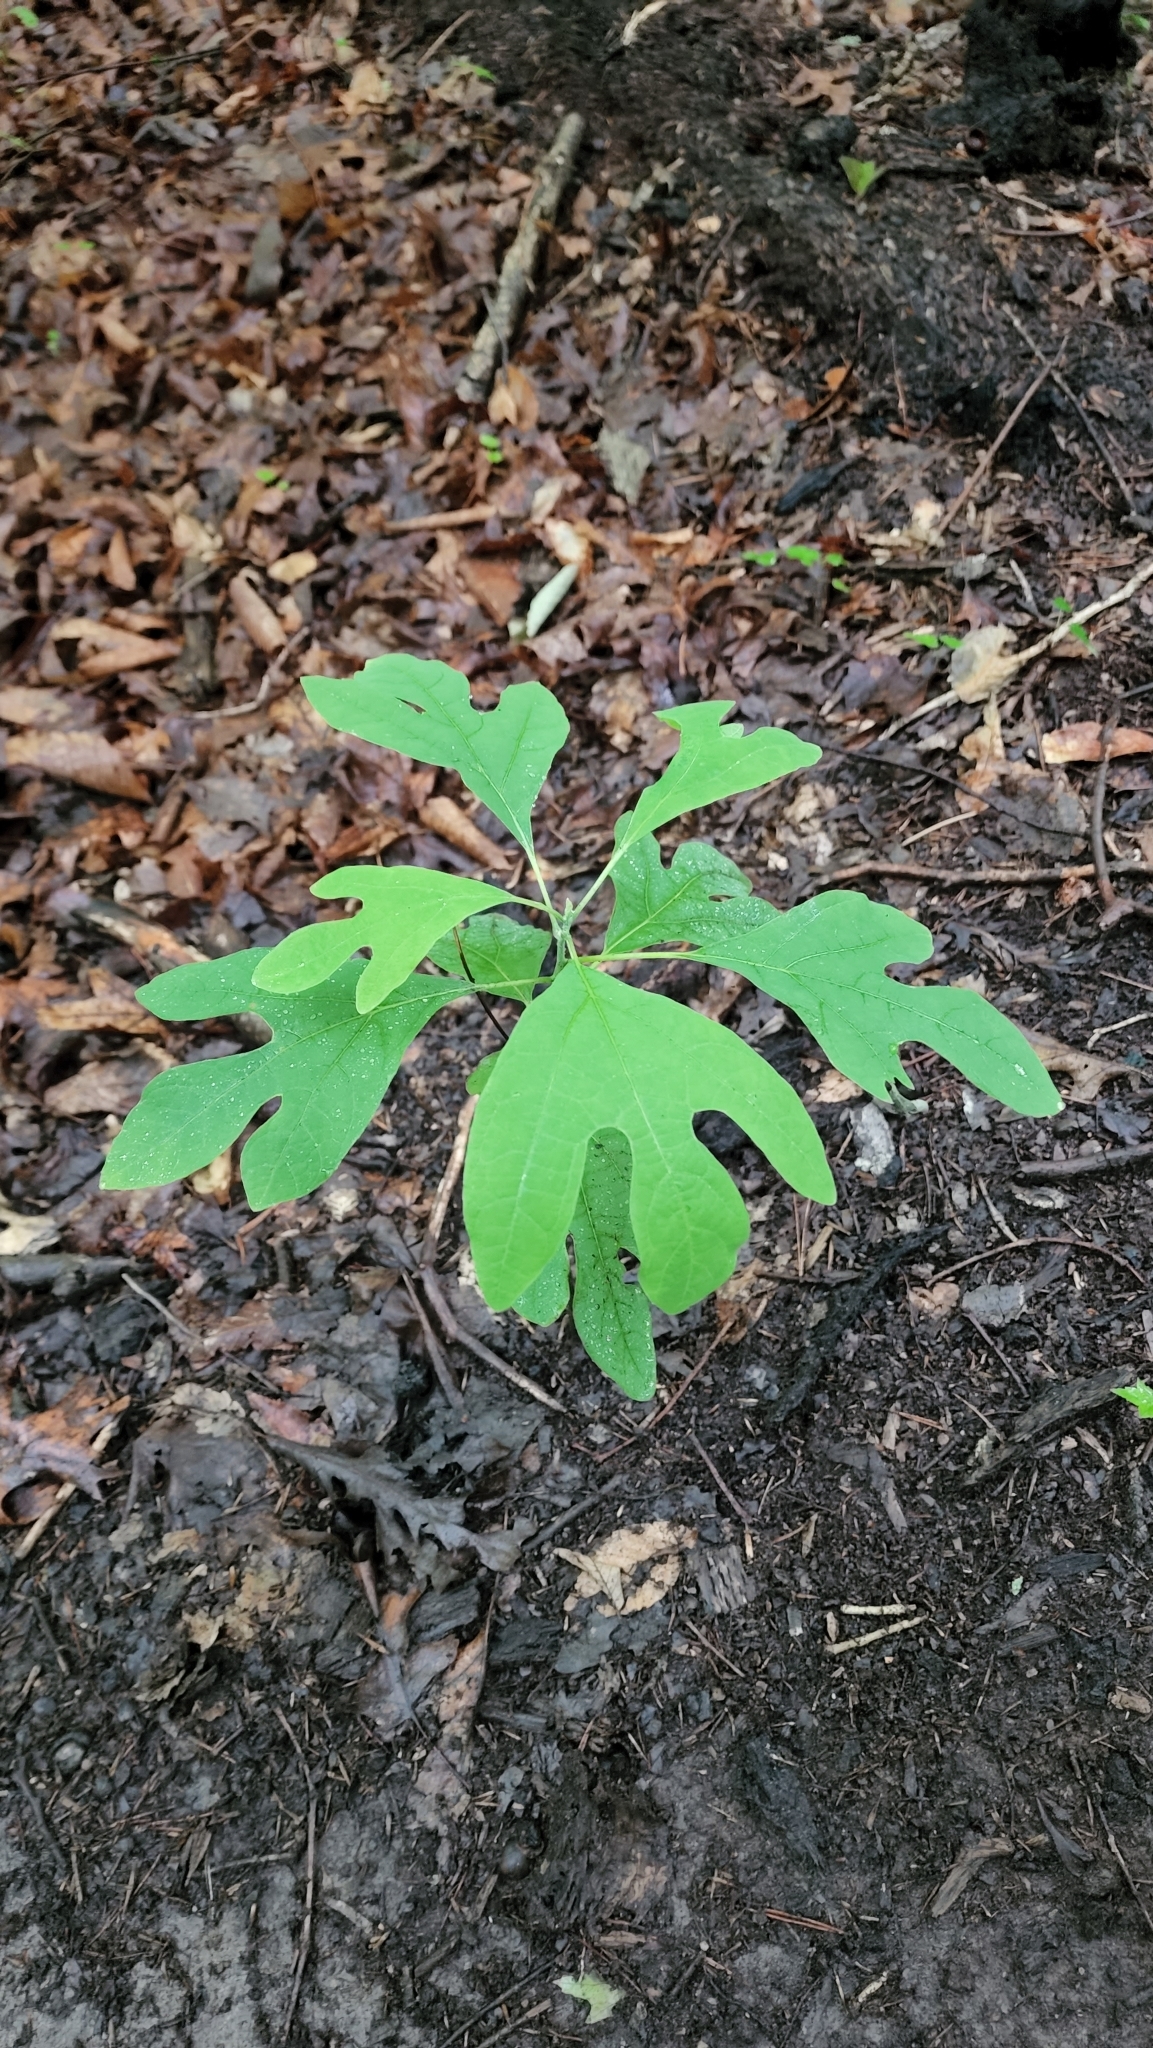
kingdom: Plantae
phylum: Tracheophyta
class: Magnoliopsida
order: Laurales
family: Lauraceae
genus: Sassafras
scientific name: Sassafras albidum
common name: Sassafras
